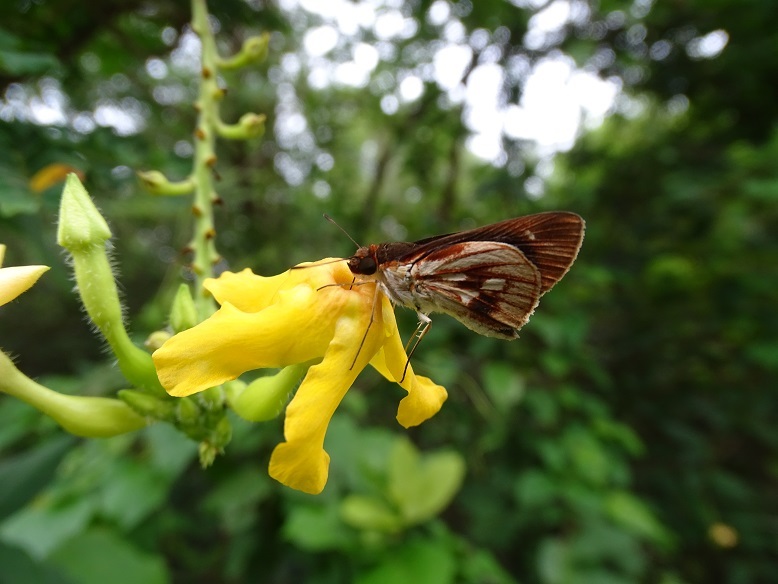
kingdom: Animalia
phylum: Arthropoda
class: Insecta
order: Lepidoptera
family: Hesperiidae
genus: Troyus
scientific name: Troyus fantasos
